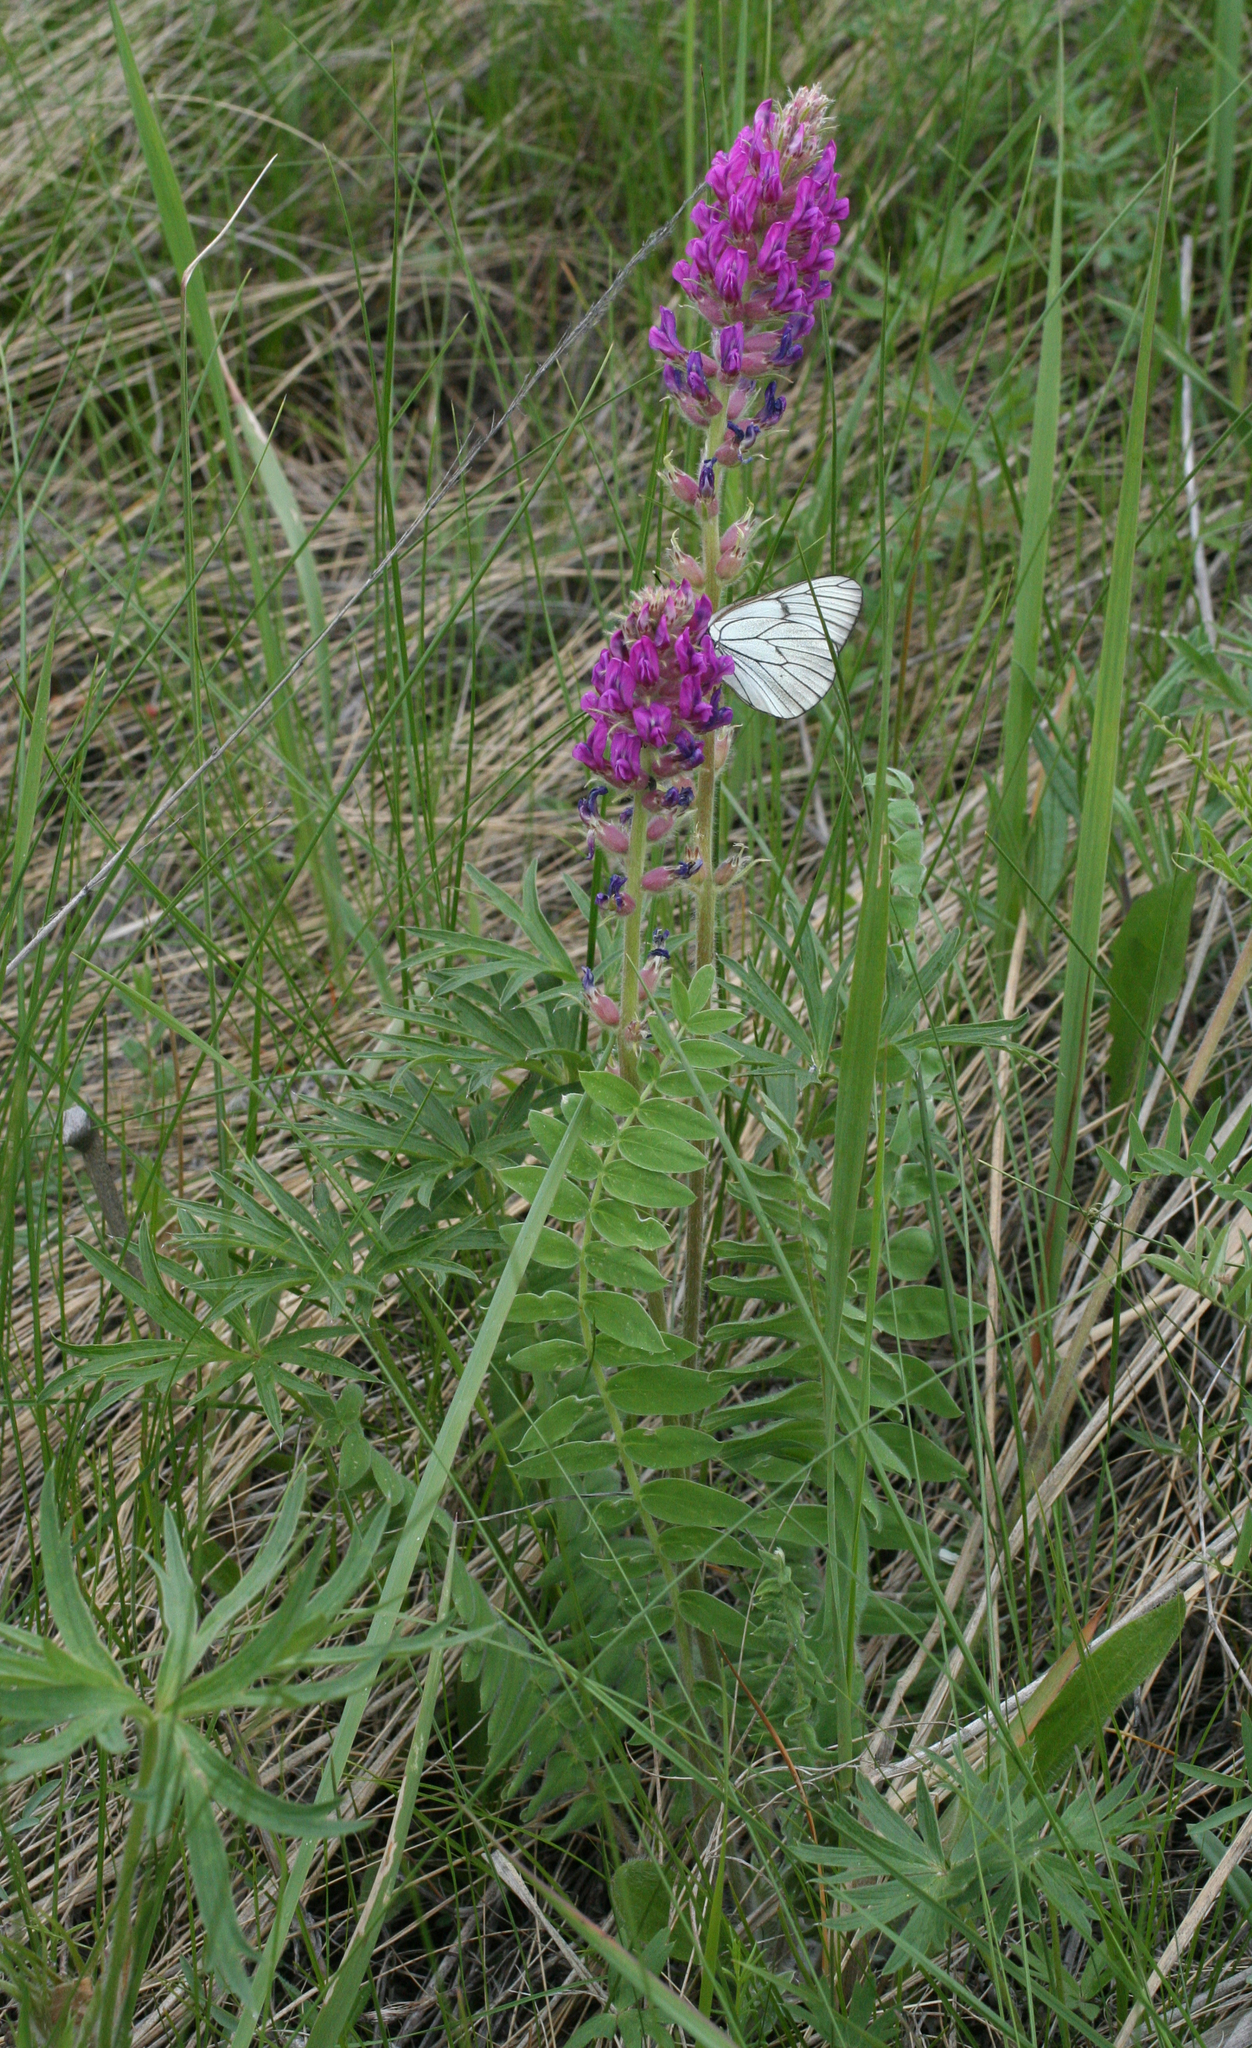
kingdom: Animalia
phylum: Arthropoda
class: Insecta
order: Lepidoptera
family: Pieridae
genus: Aporia
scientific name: Aporia crataegi
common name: Black-veined white
